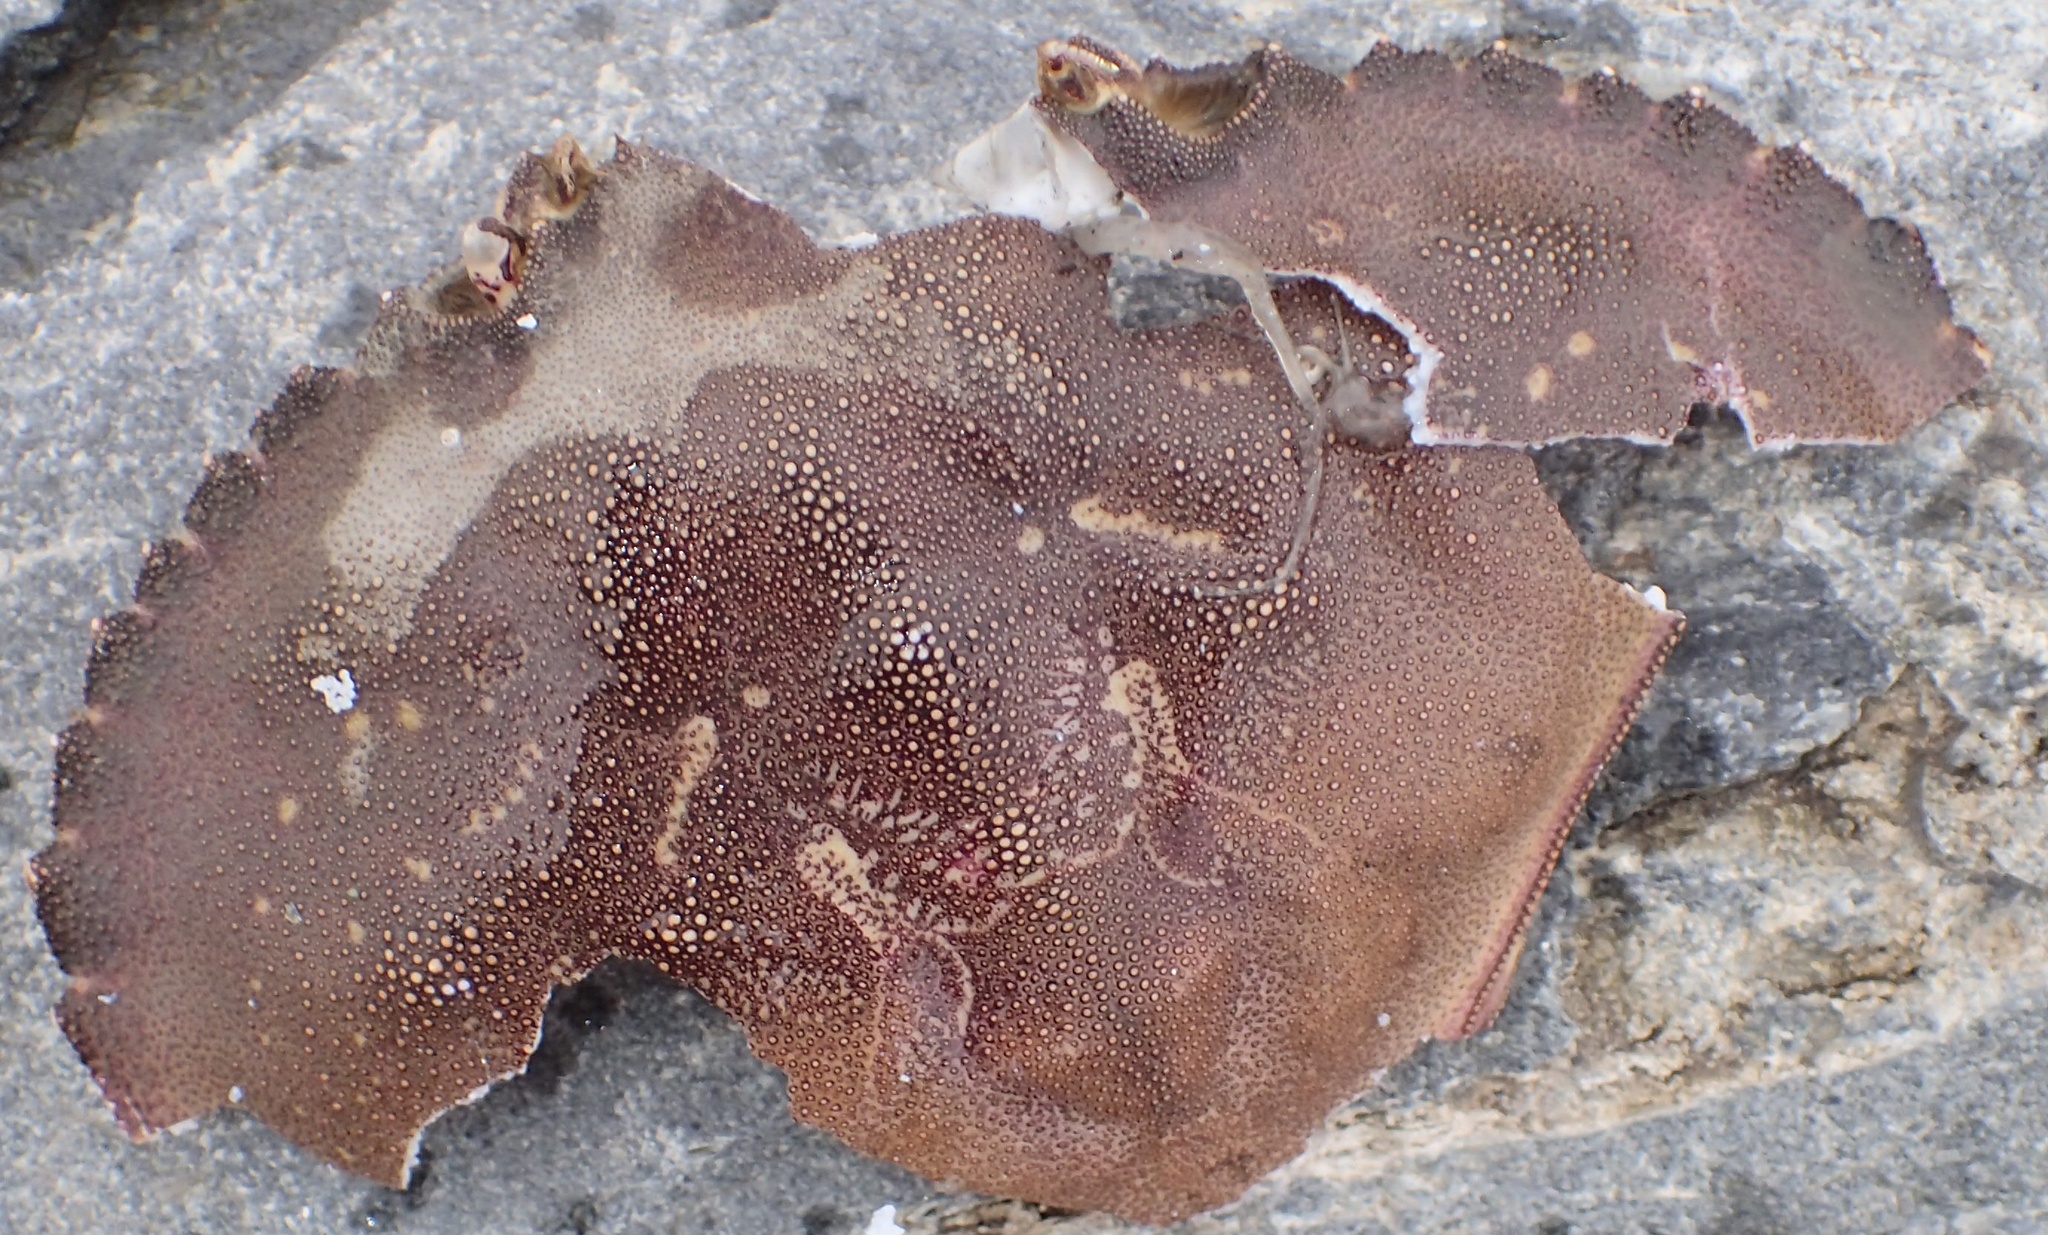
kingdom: Animalia
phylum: Arthropoda
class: Malacostraca
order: Decapoda
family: Cancridae
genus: Metacarcinus
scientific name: Metacarcinus magister
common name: Californian crab
